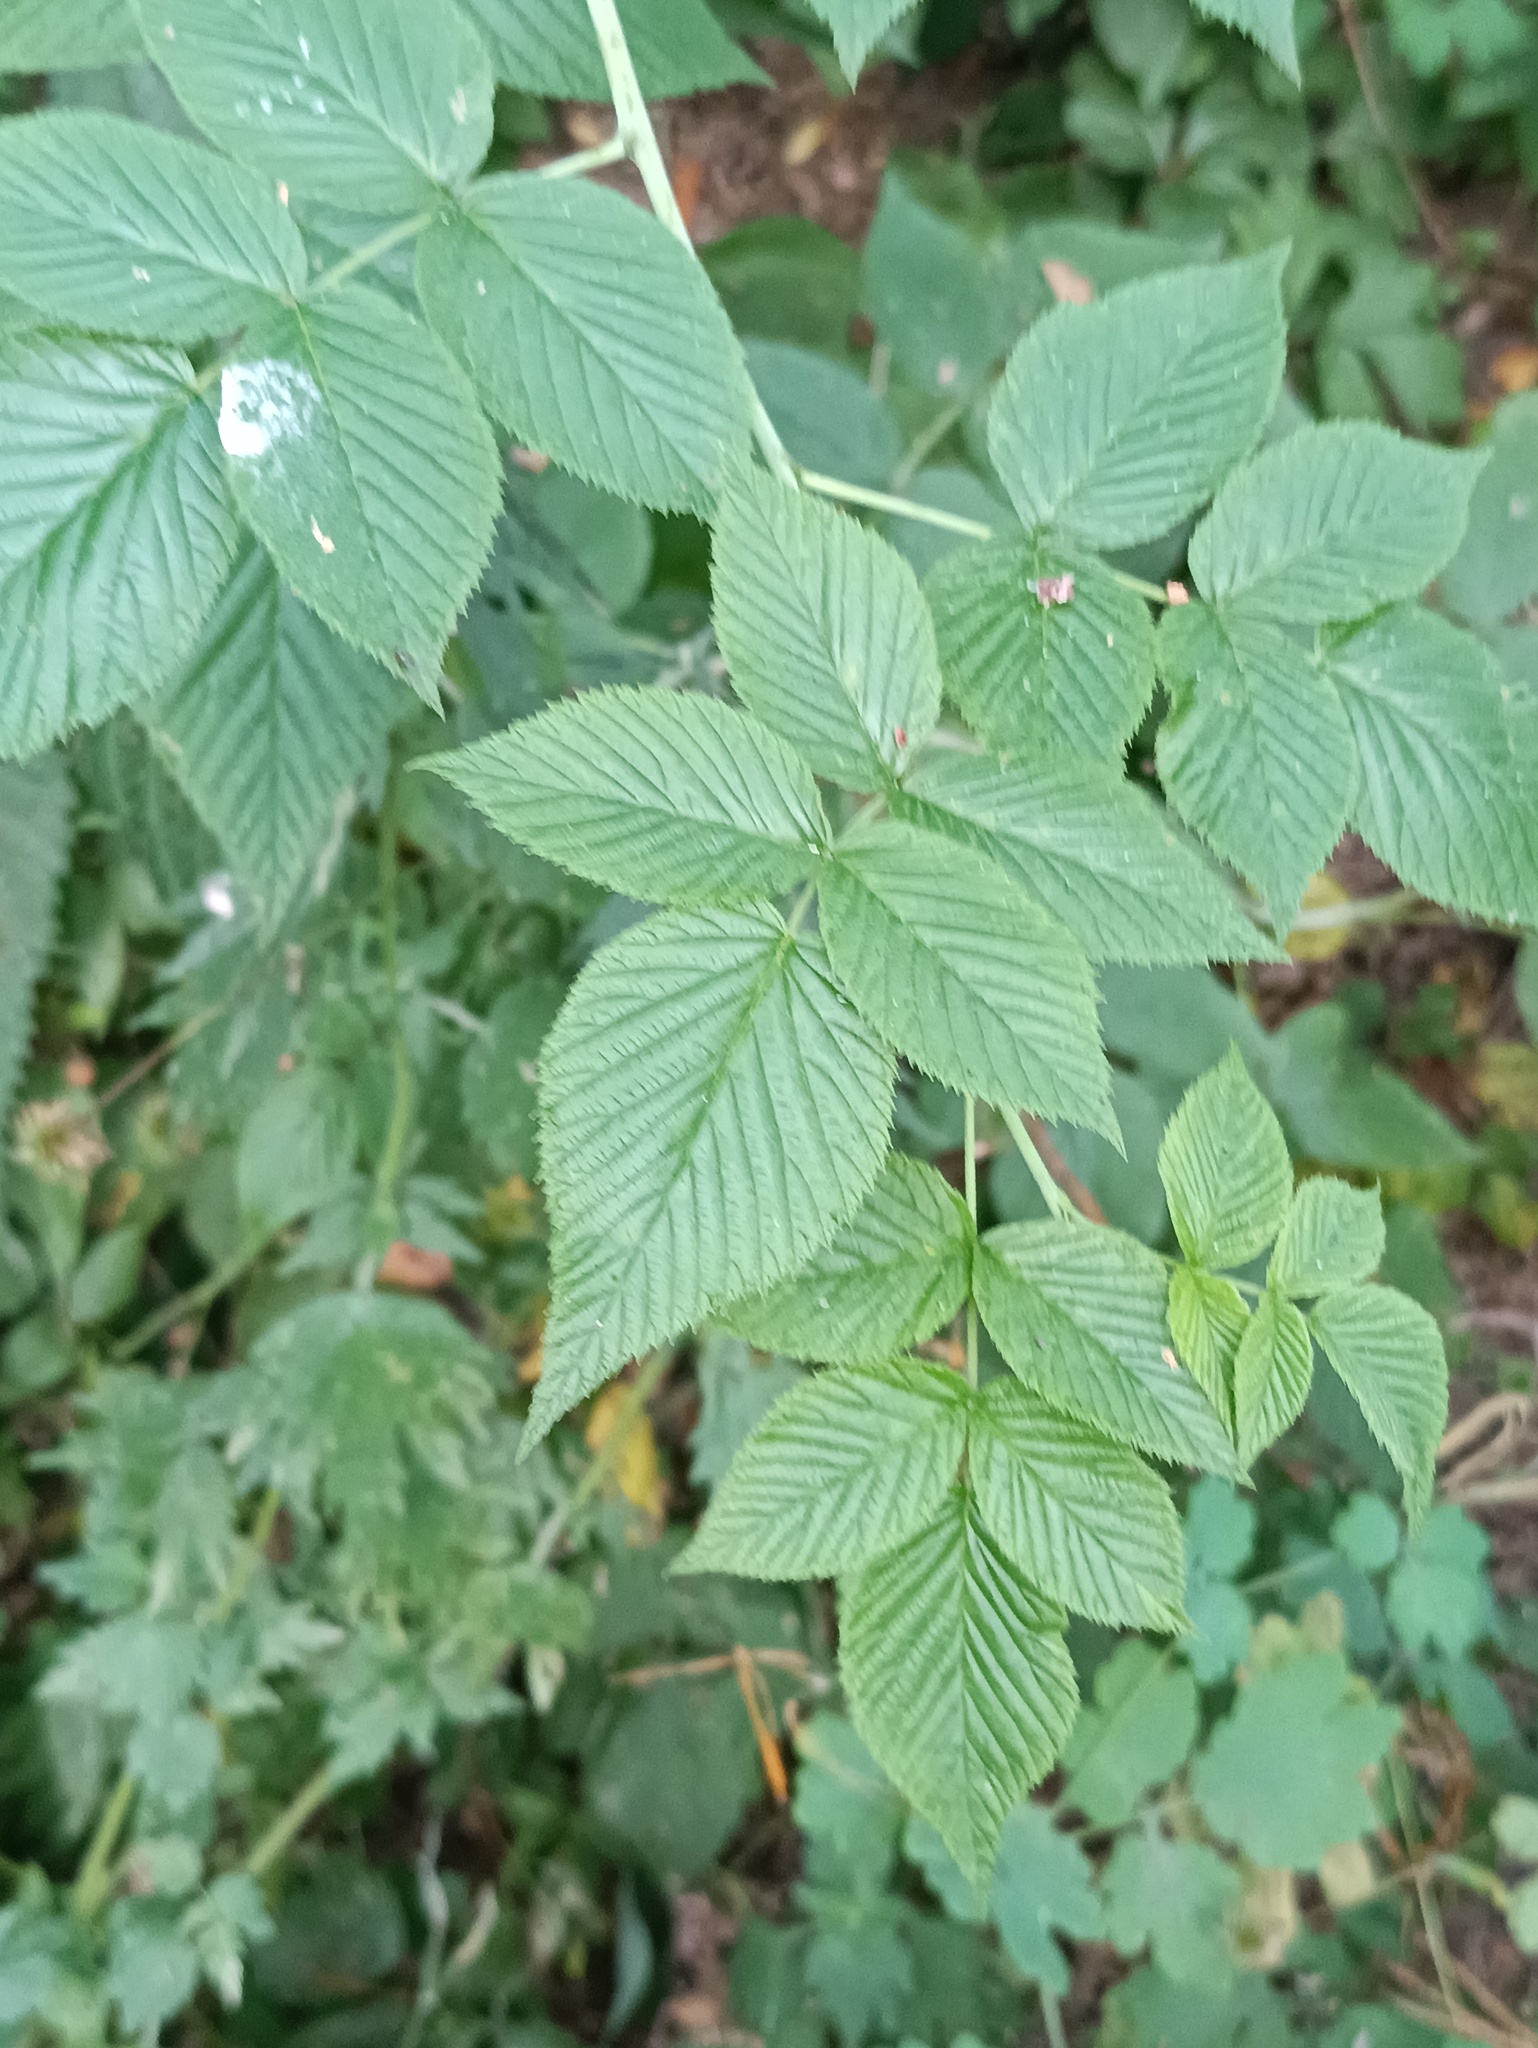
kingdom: Plantae
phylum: Tracheophyta
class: Magnoliopsida
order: Rosales
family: Rosaceae
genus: Rubus
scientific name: Rubus idaeus
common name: Raspberry
